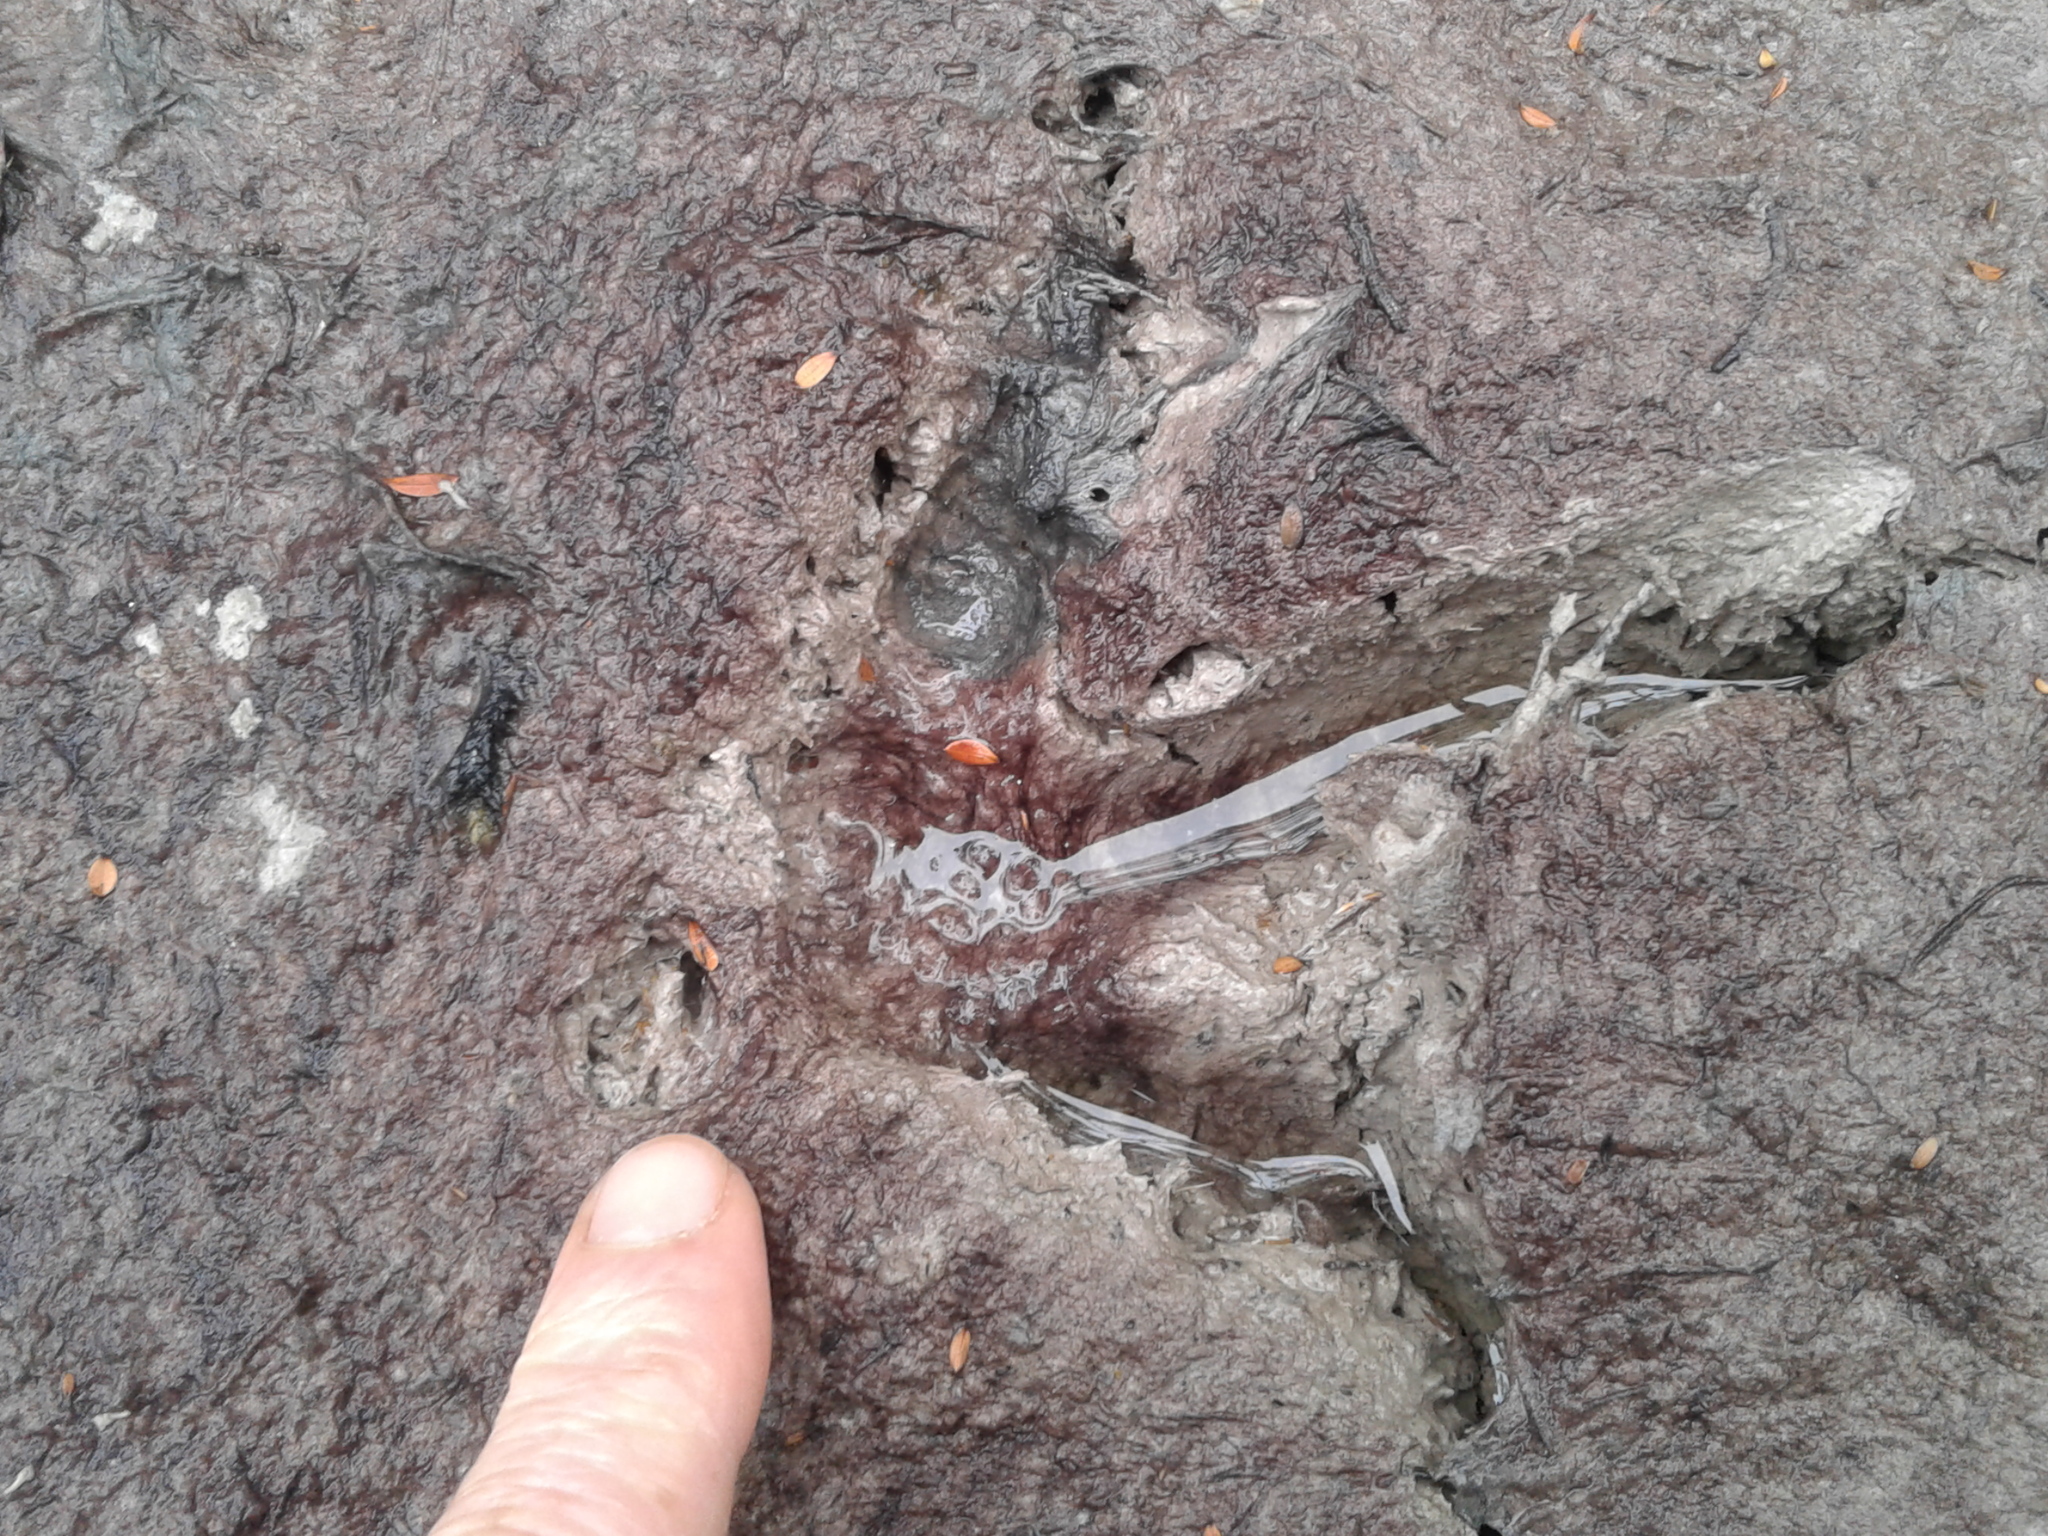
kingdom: Animalia
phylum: Chordata
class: Aves
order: Gruiformes
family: Rallidae
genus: Gallirallus
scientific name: Gallirallus australis
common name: Weka
